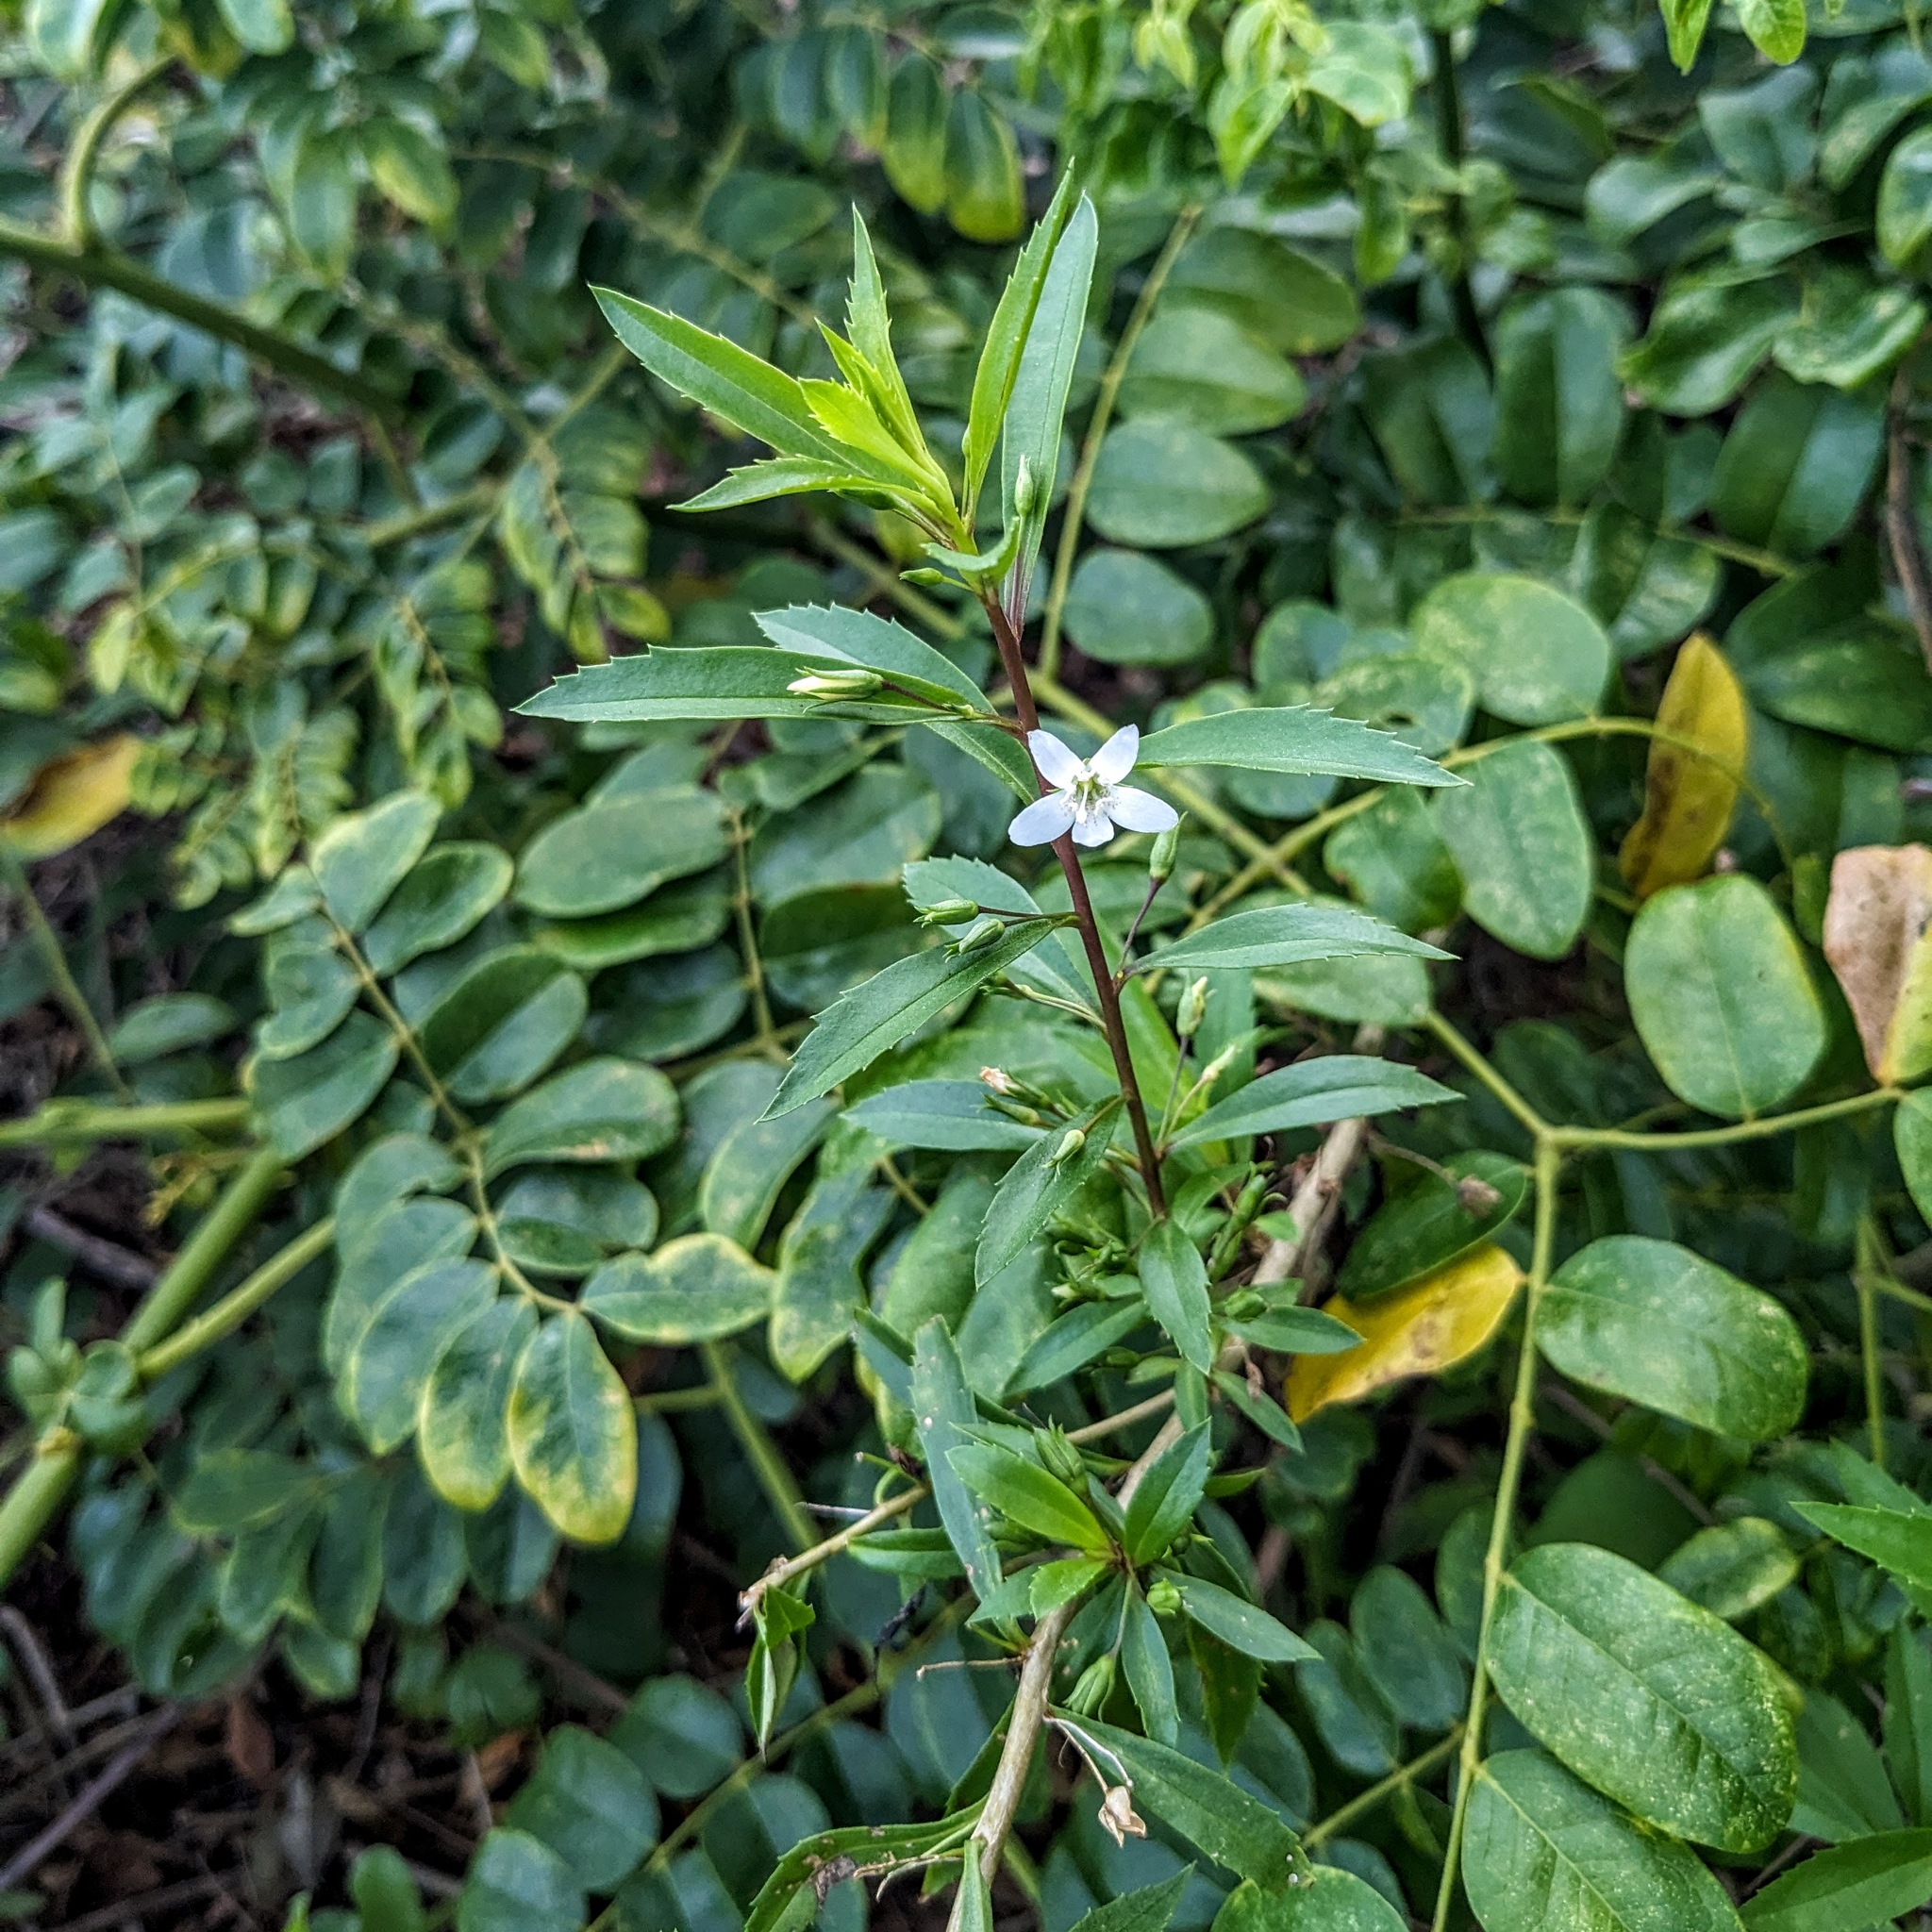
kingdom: Plantae
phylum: Tracheophyta
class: Magnoliopsida
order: Lamiales
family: Scrophulariaceae
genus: Capraria
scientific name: Capraria biflora
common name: Goatweed
